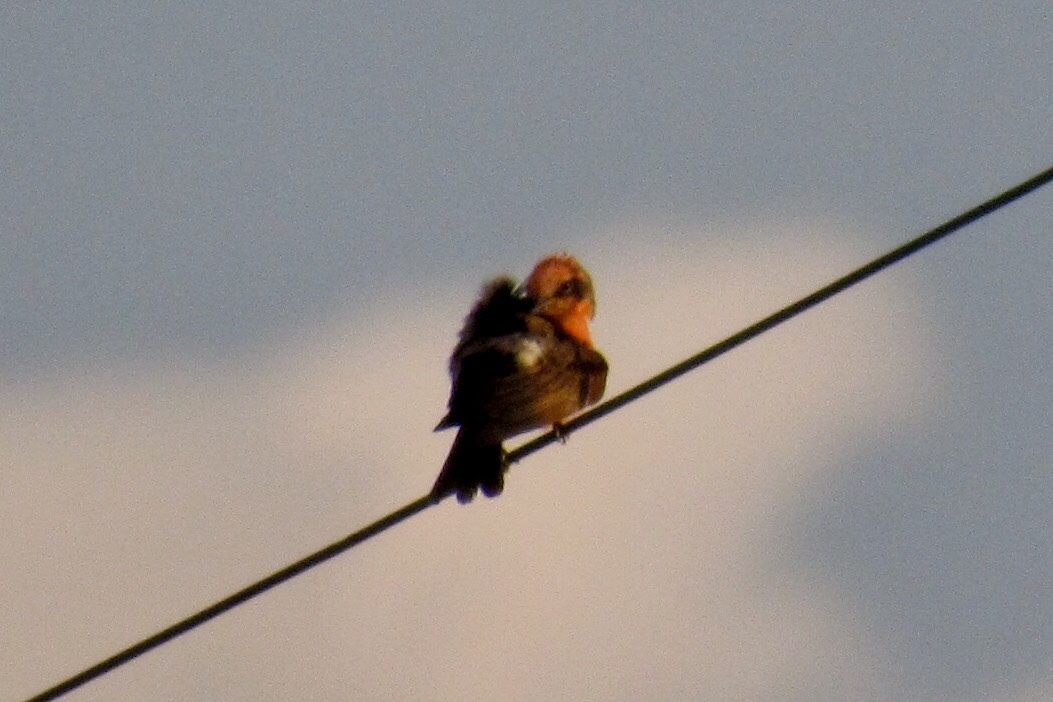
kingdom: Animalia
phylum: Chordata
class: Aves
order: Passeriformes
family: Tyrannidae
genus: Pyrocephalus
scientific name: Pyrocephalus rubinus
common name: Vermilion flycatcher
